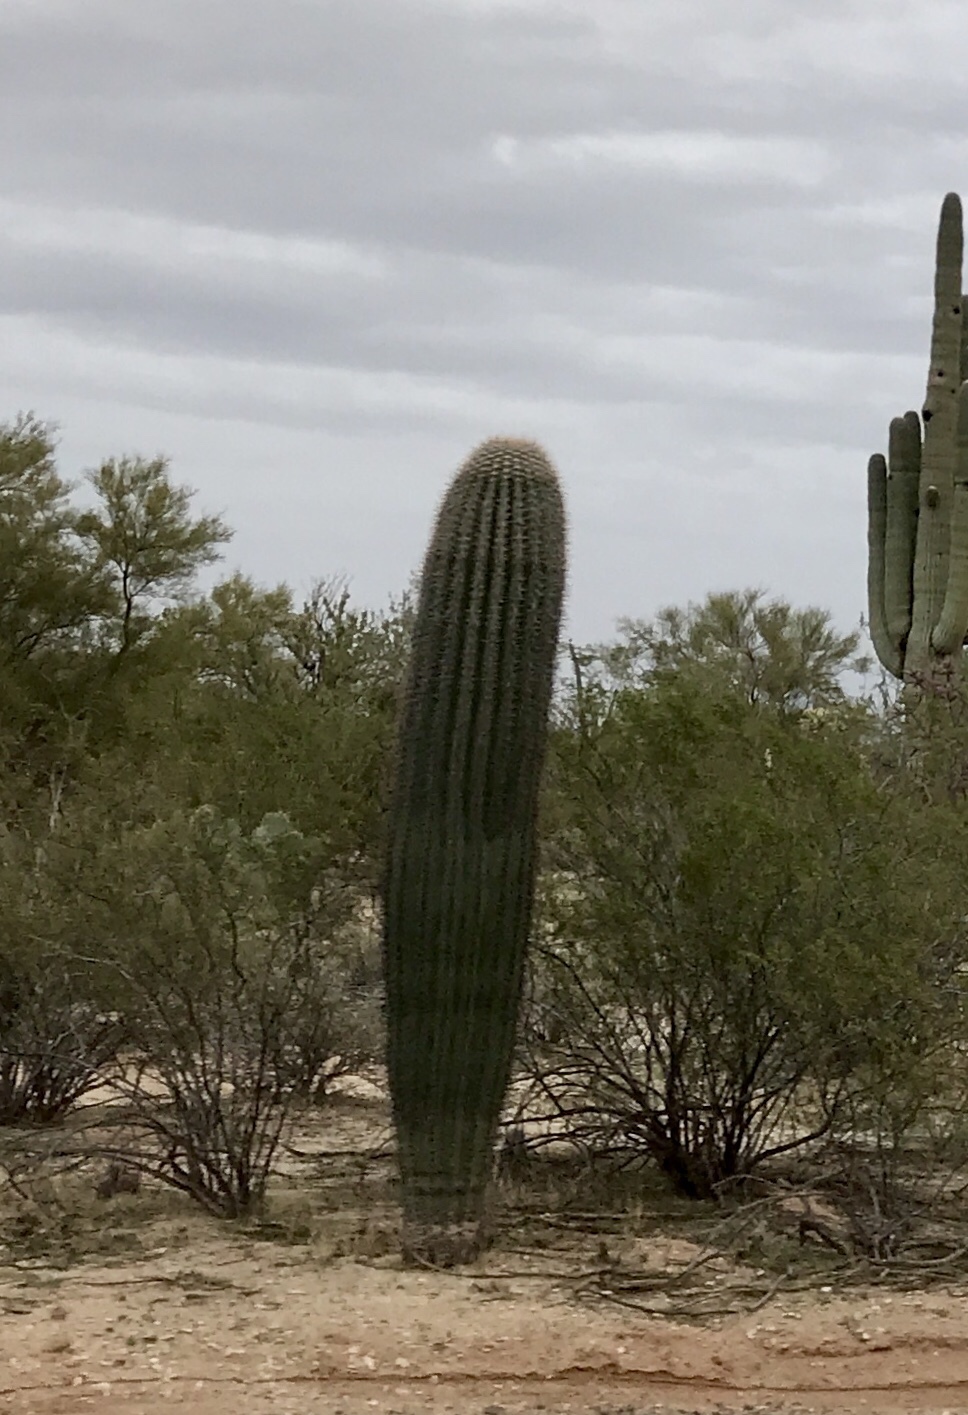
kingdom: Plantae
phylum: Tracheophyta
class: Magnoliopsida
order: Caryophyllales
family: Cactaceae
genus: Carnegiea
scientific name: Carnegiea gigantea
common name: Saguaro
